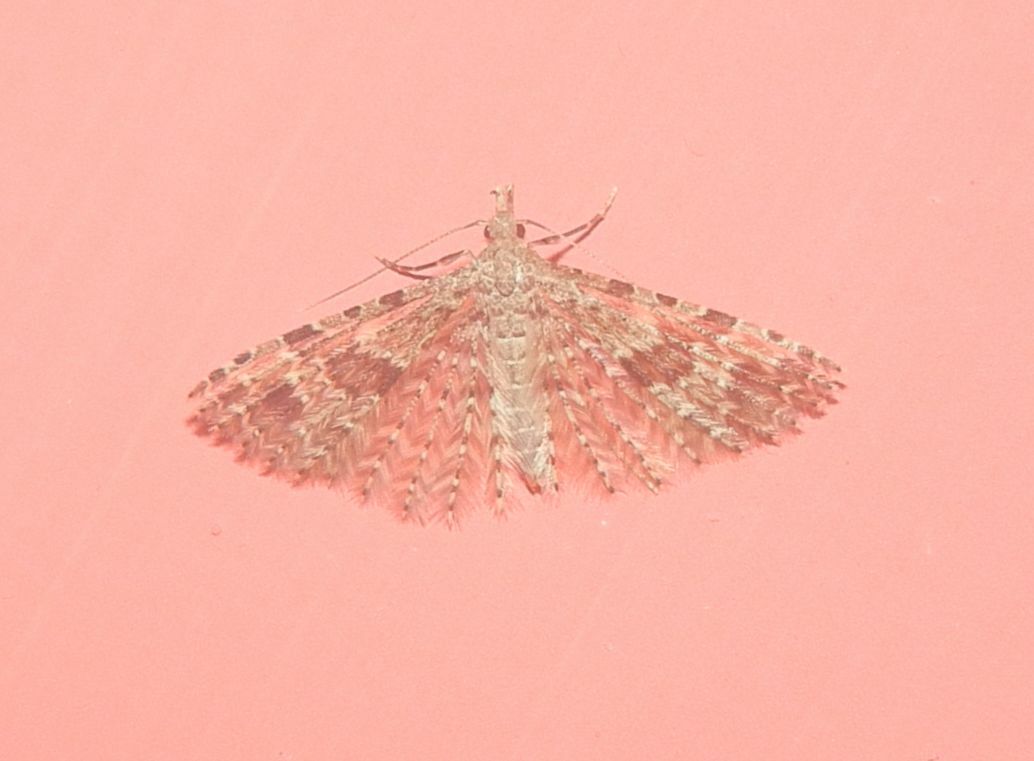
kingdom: Animalia
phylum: Arthropoda
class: Insecta
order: Lepidoptera
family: Alucitidae
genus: Alucita
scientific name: Alucita hexadactyla
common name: Twenty-plume moth
